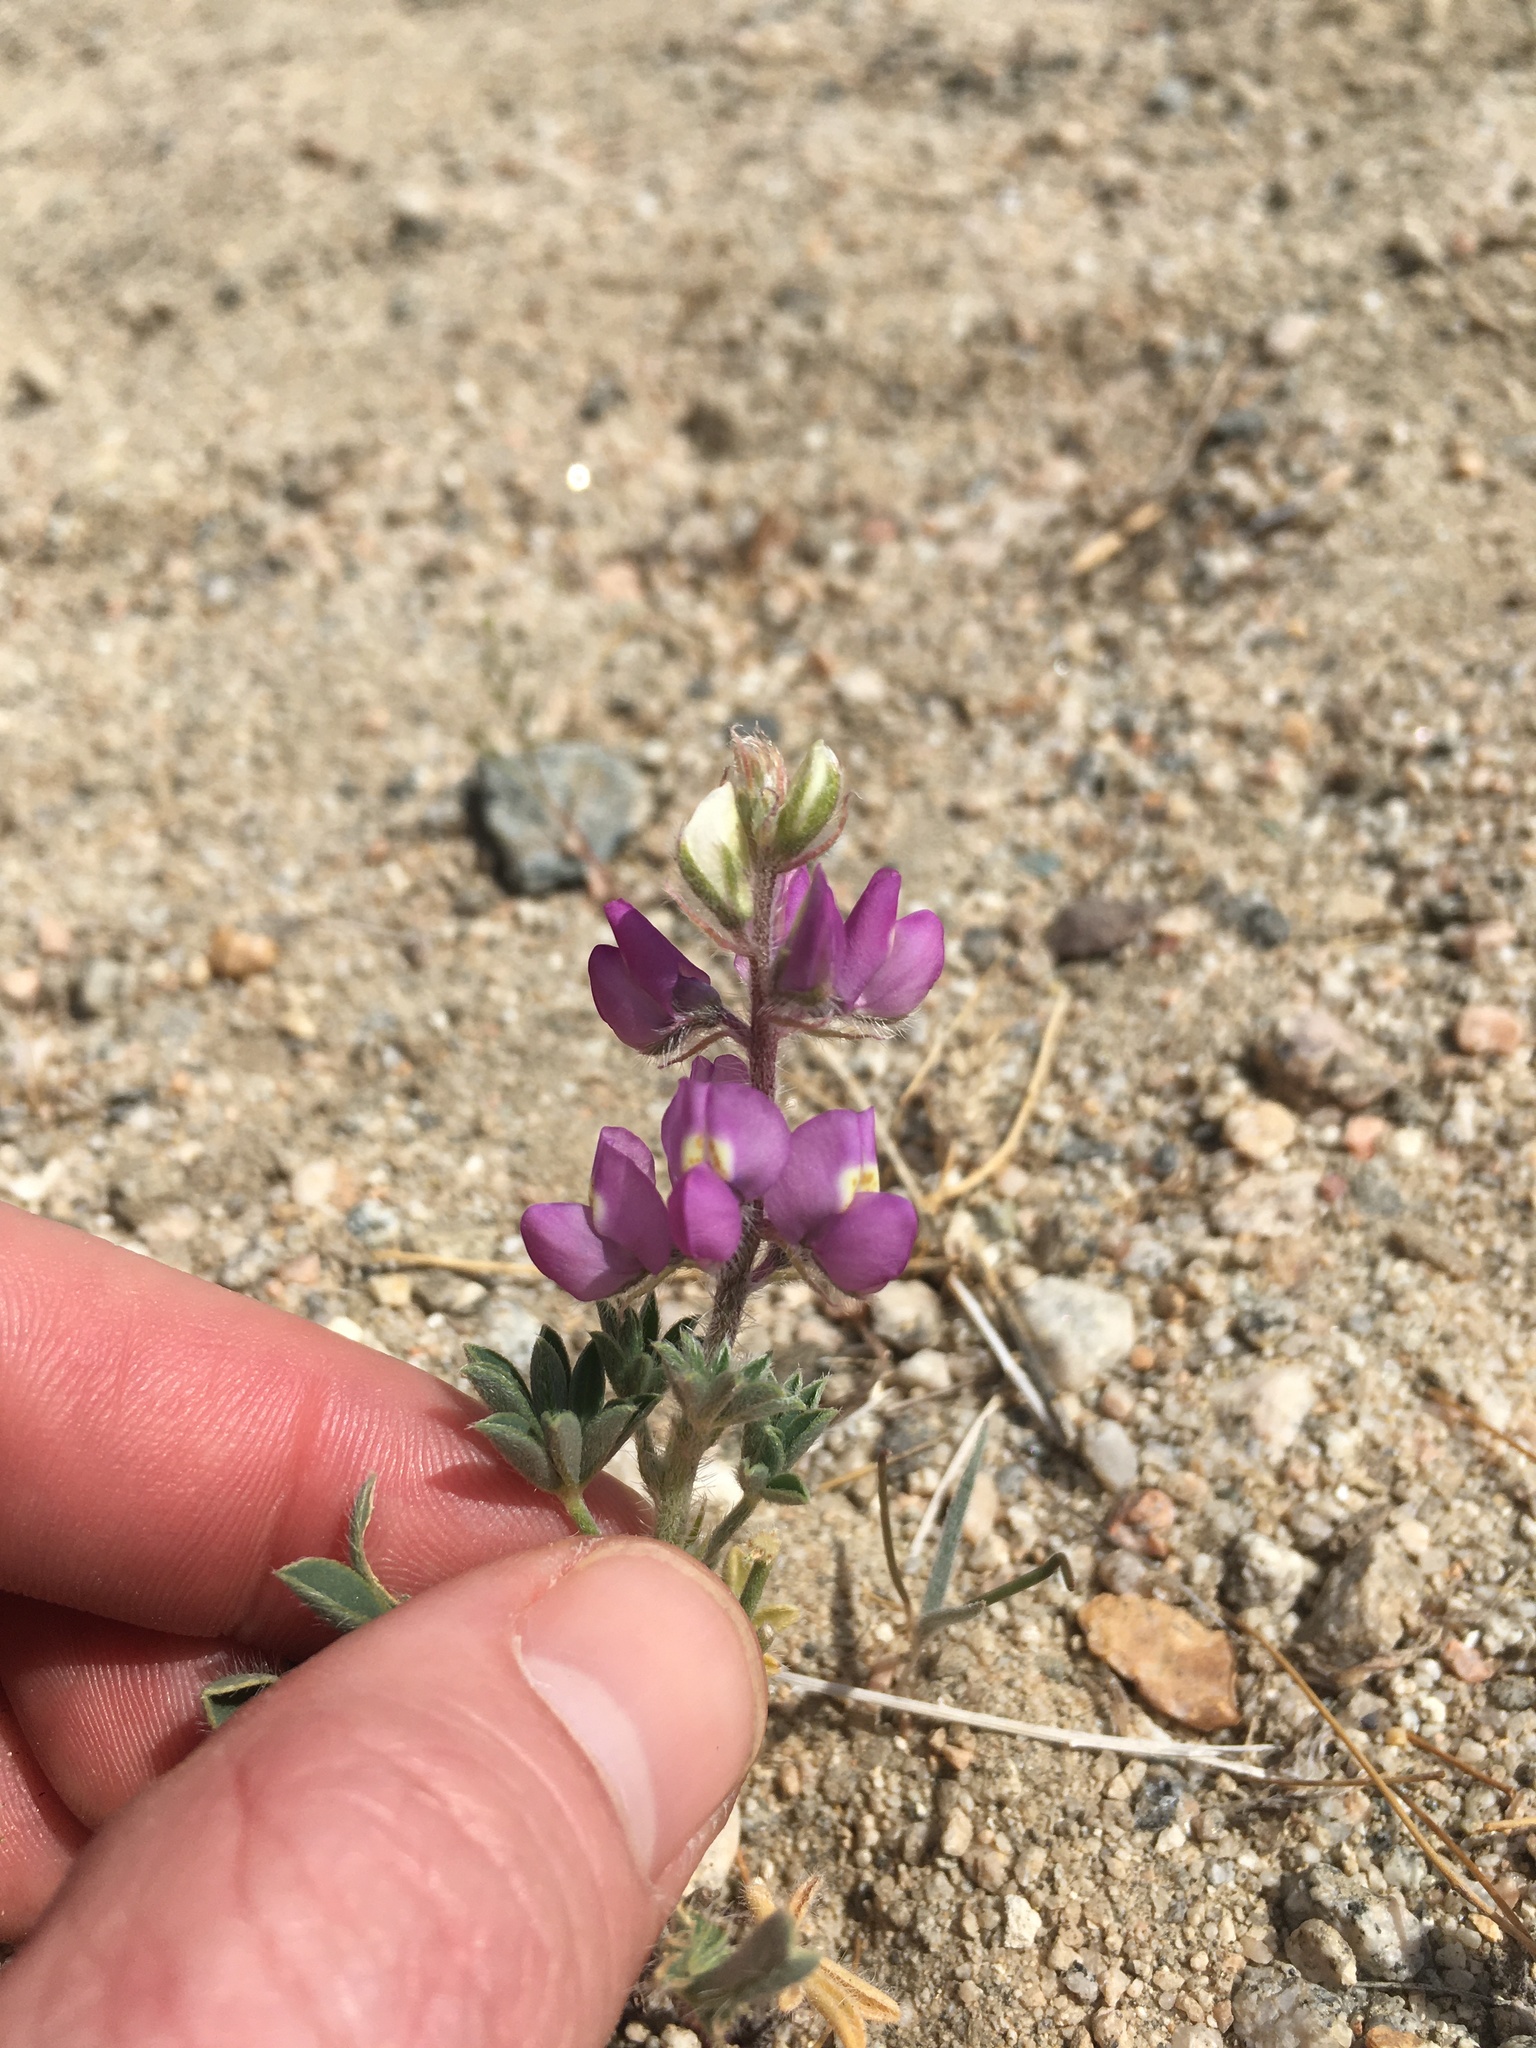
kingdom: Plantae
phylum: Tracheophyta
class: Magnoliopsida
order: Fabales
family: Fabaceae
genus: Lupinus
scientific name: Lupinus arizonicus
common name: Arizona lupine
